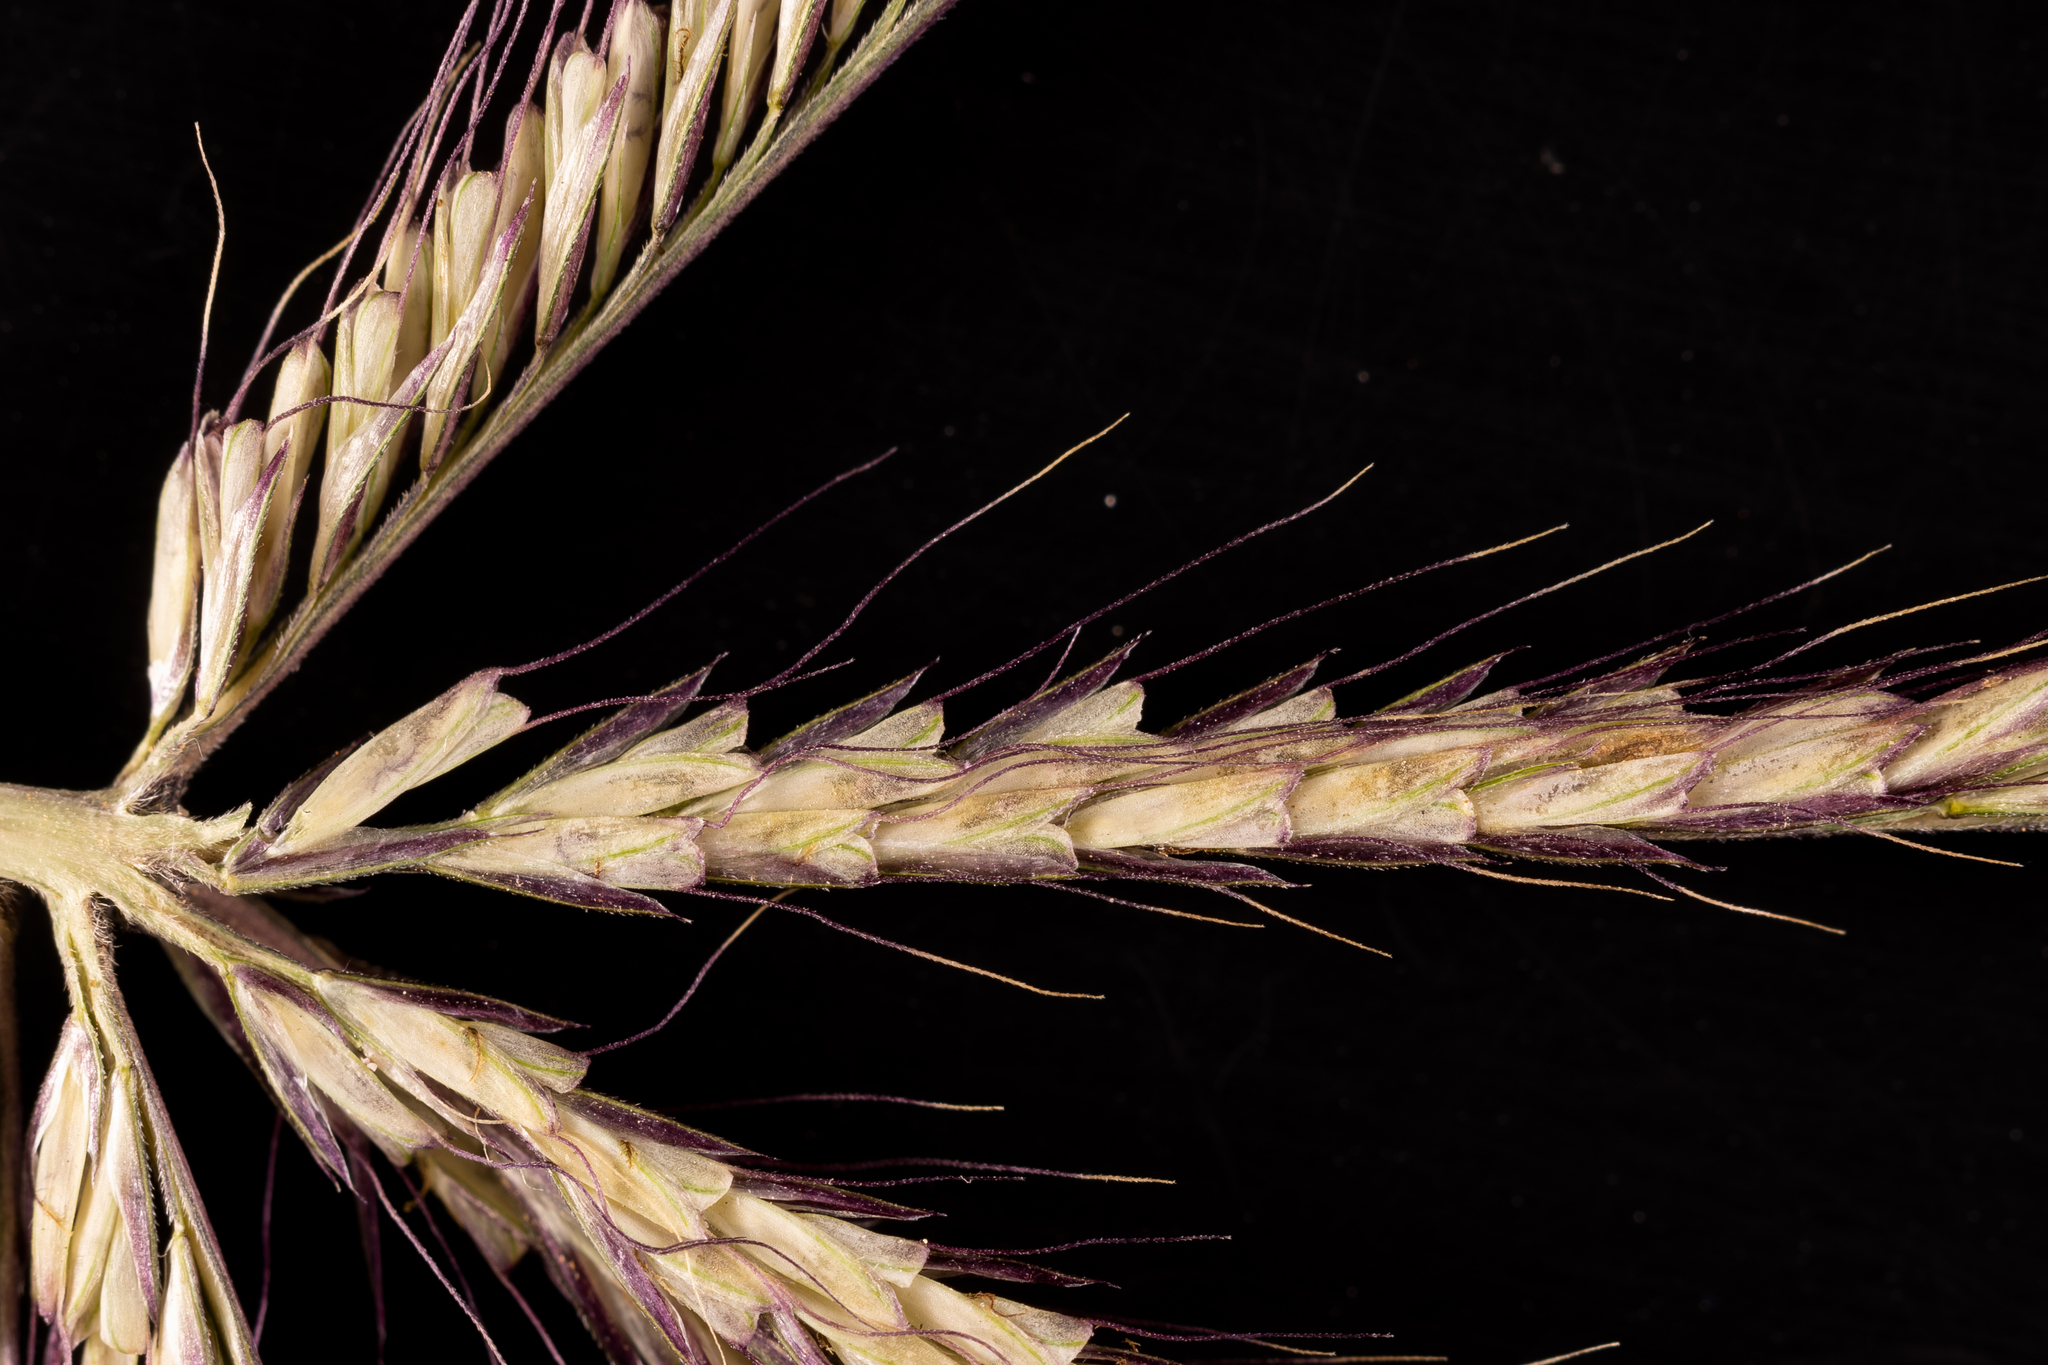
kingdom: Plantae
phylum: Tracheophyta
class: Liliopsida
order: Poales
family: Poaceae
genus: Chloris
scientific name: Chloris truncata
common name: Windmill-grass
